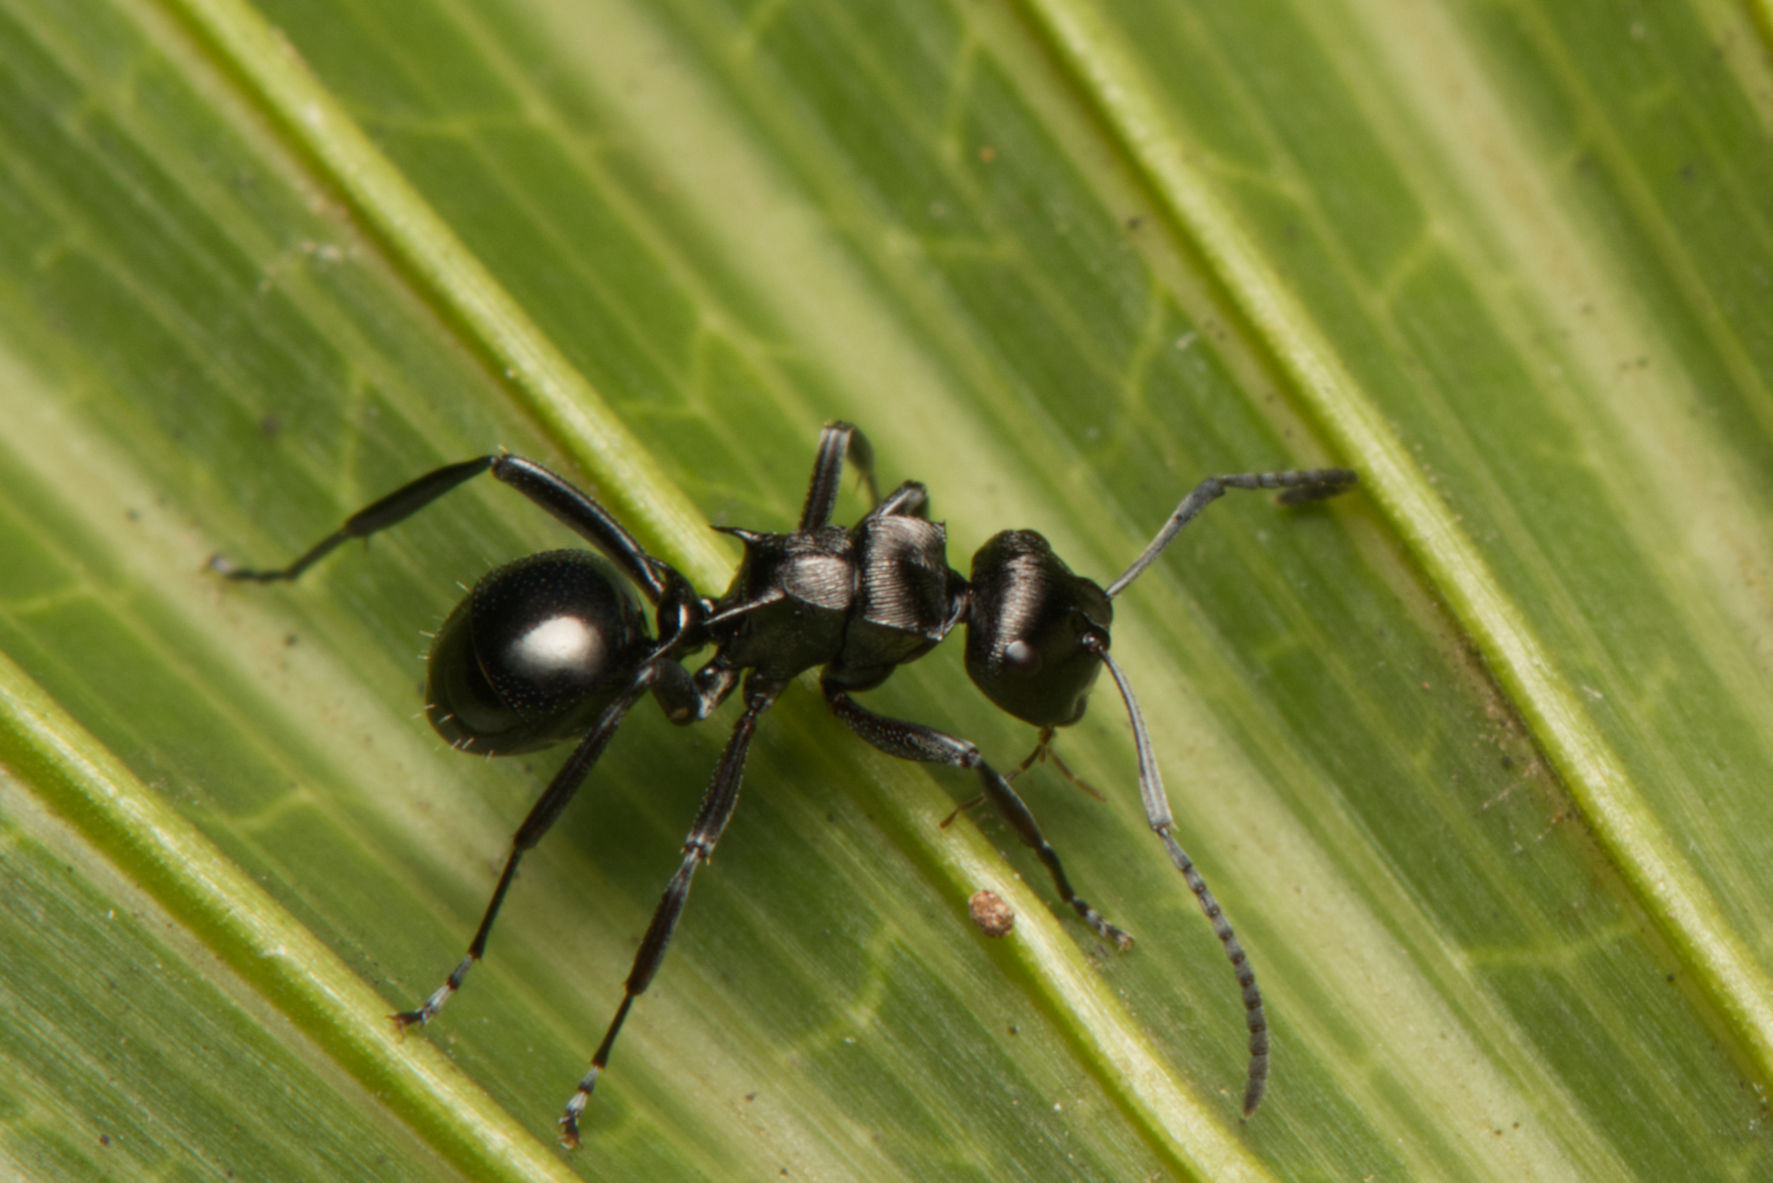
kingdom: Animalia
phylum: Arthropoda
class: Insecta
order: Hymenoptera
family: Formicidae
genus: Polyrhachis
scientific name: Polyrhachis clio
